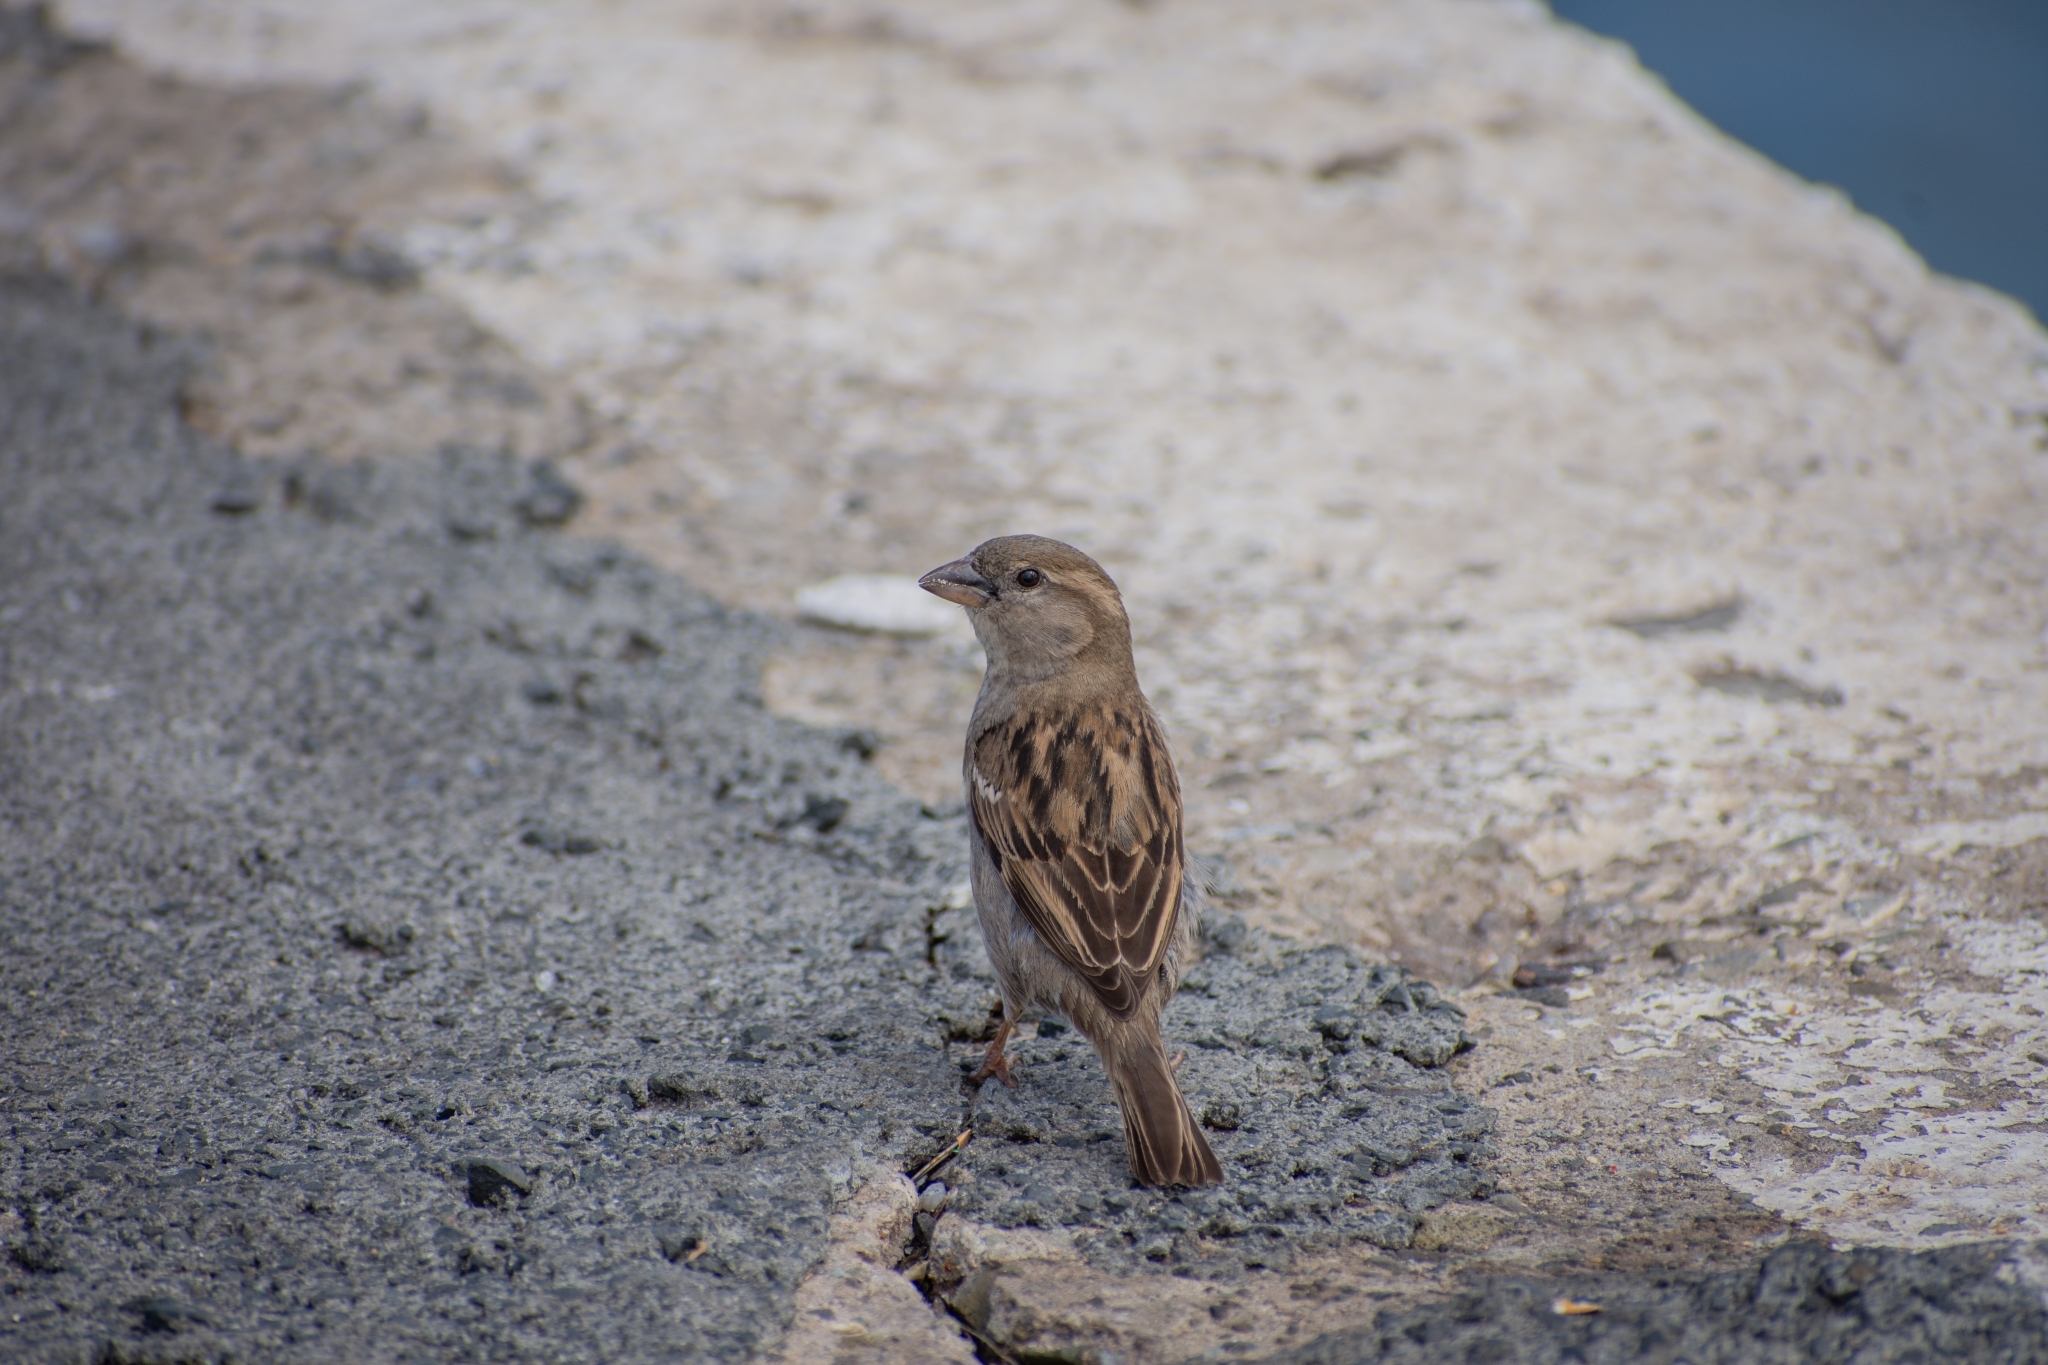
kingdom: Animalia
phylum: Chordata
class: Aves
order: Passeriformes
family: Passeridae
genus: Passer
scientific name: Passer domesticus
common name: House sparrow
